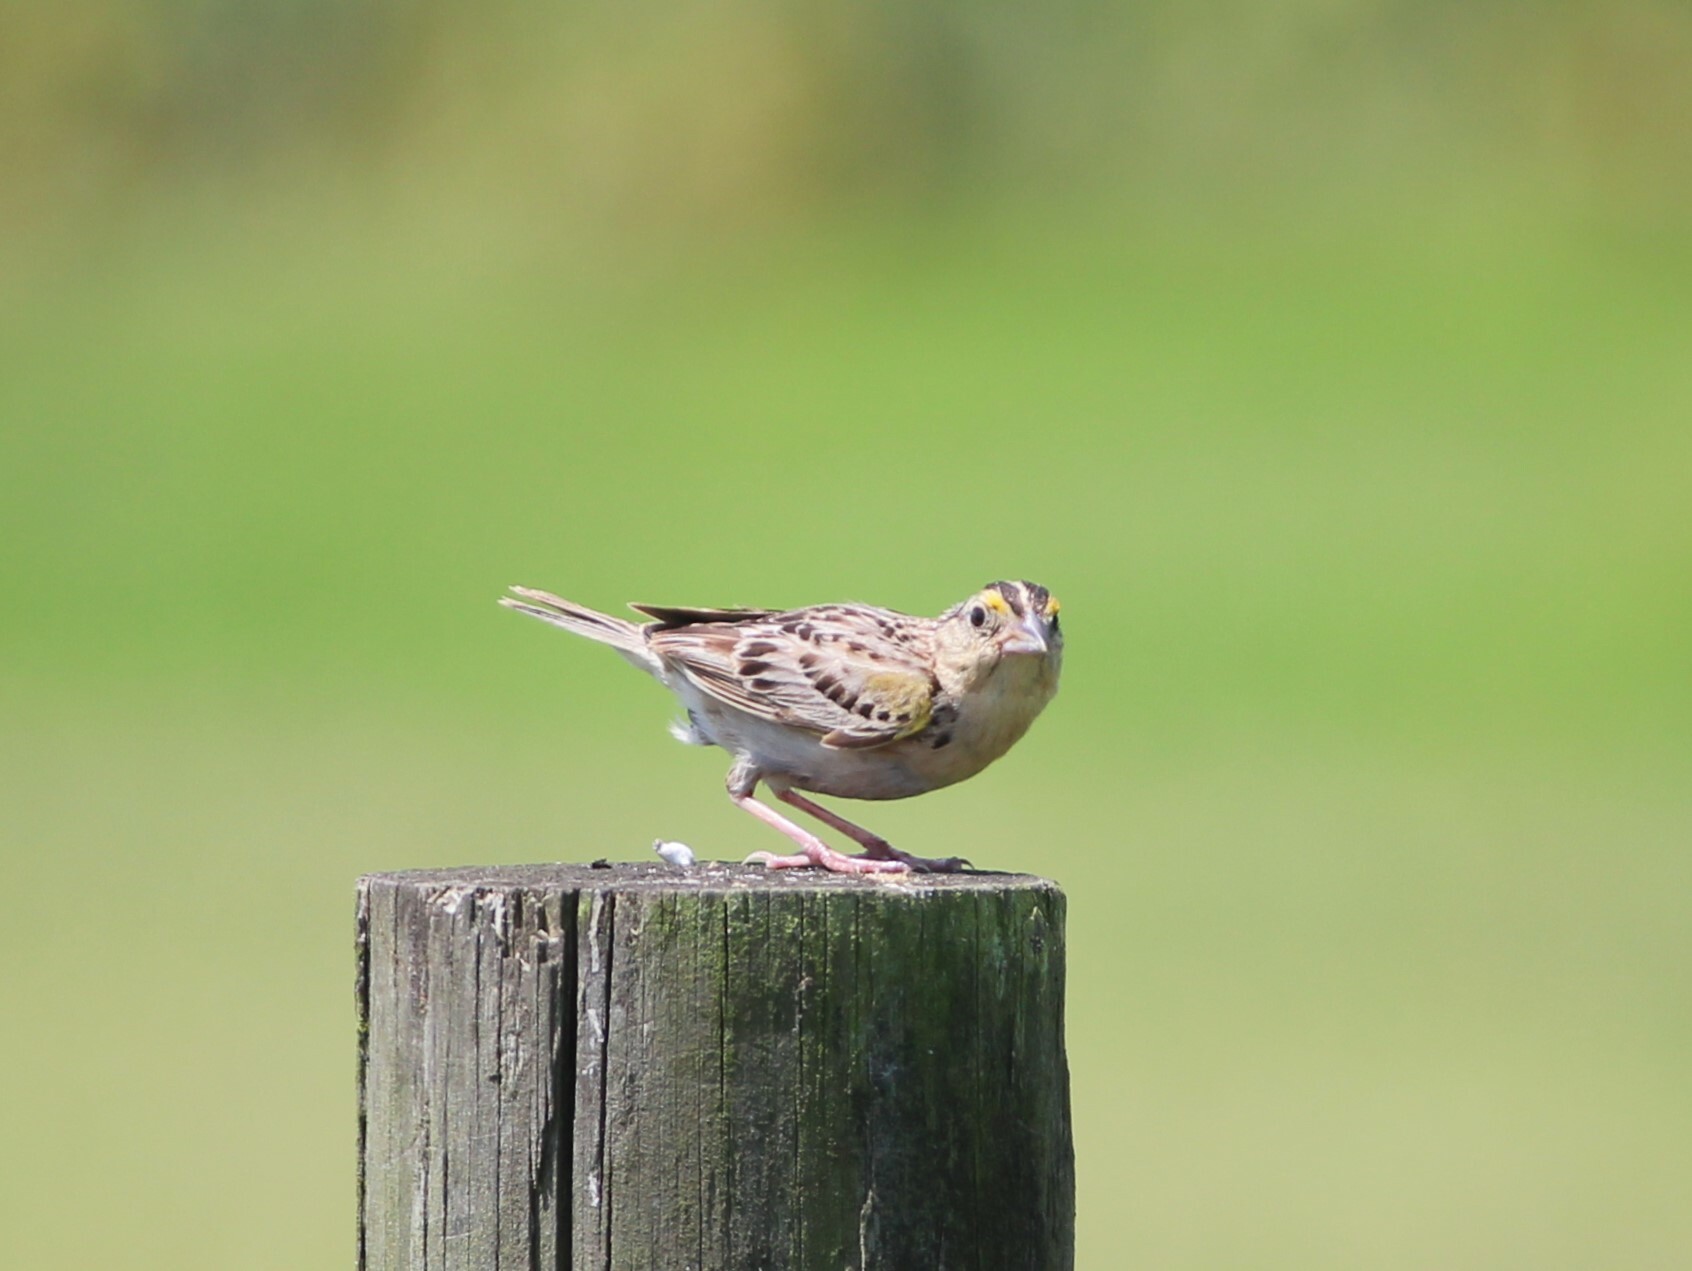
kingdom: Animalia
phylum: Chordata
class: Aves
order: Passeriformes
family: Passerellidae
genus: Ammodramus
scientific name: Ammodramus savannarum
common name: Grasshopper sparrow
